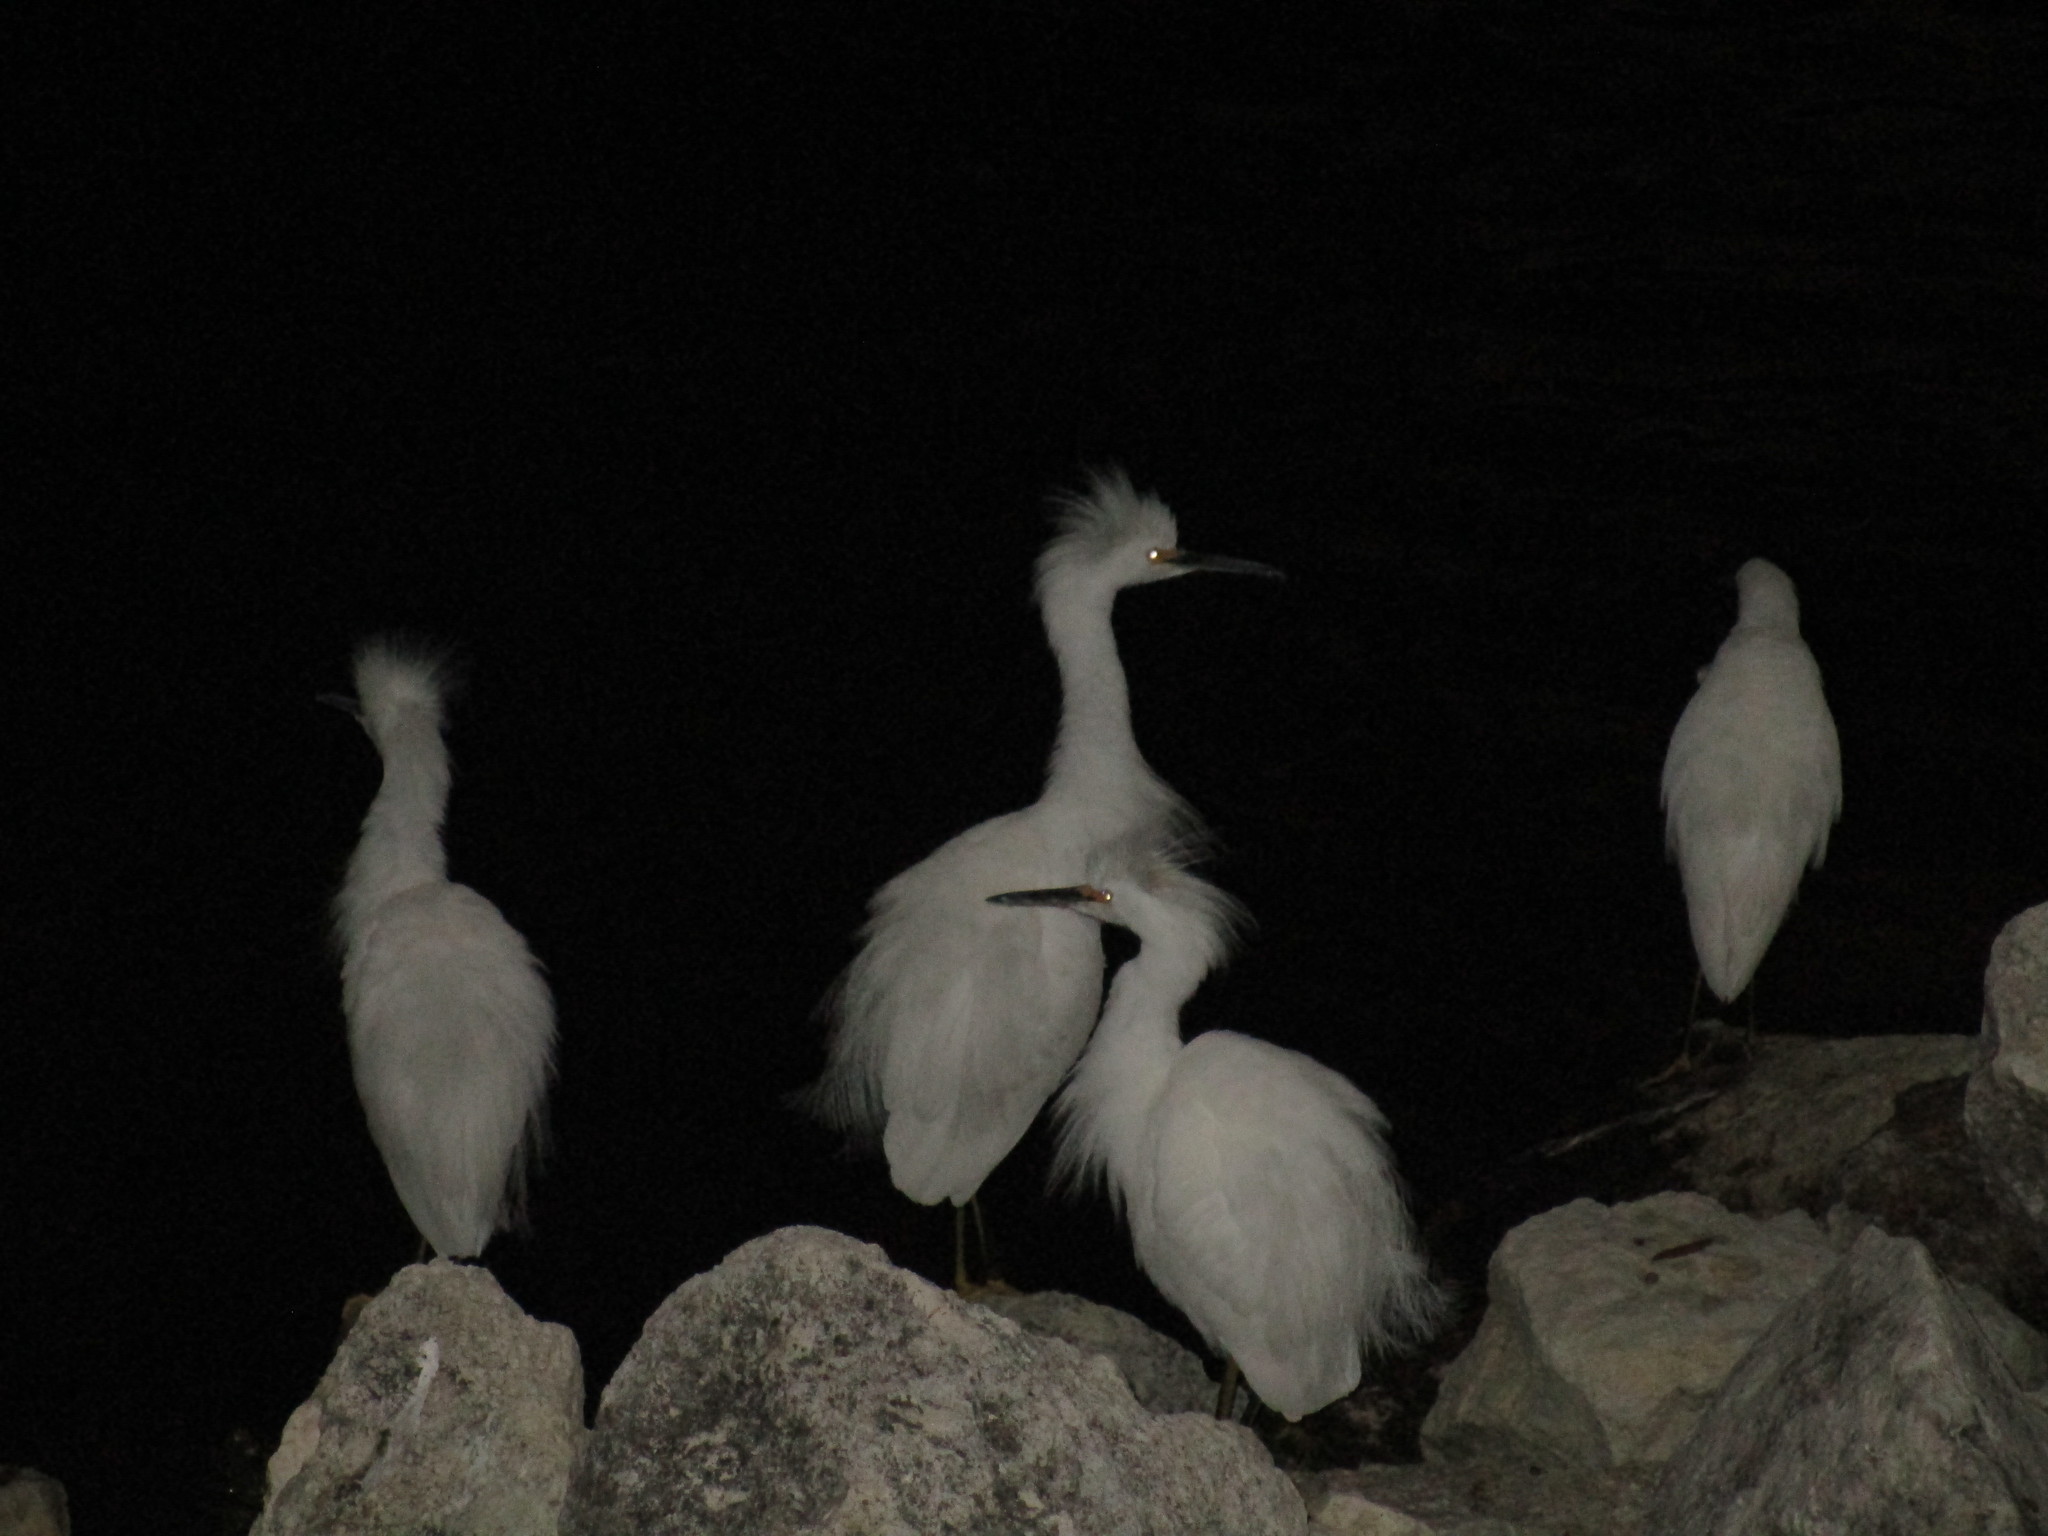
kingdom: Animalia
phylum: Chordata
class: Aves
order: Pelecaniformes
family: Ardeidae
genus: Egretta
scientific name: Egretta thula
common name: Snowy egret
